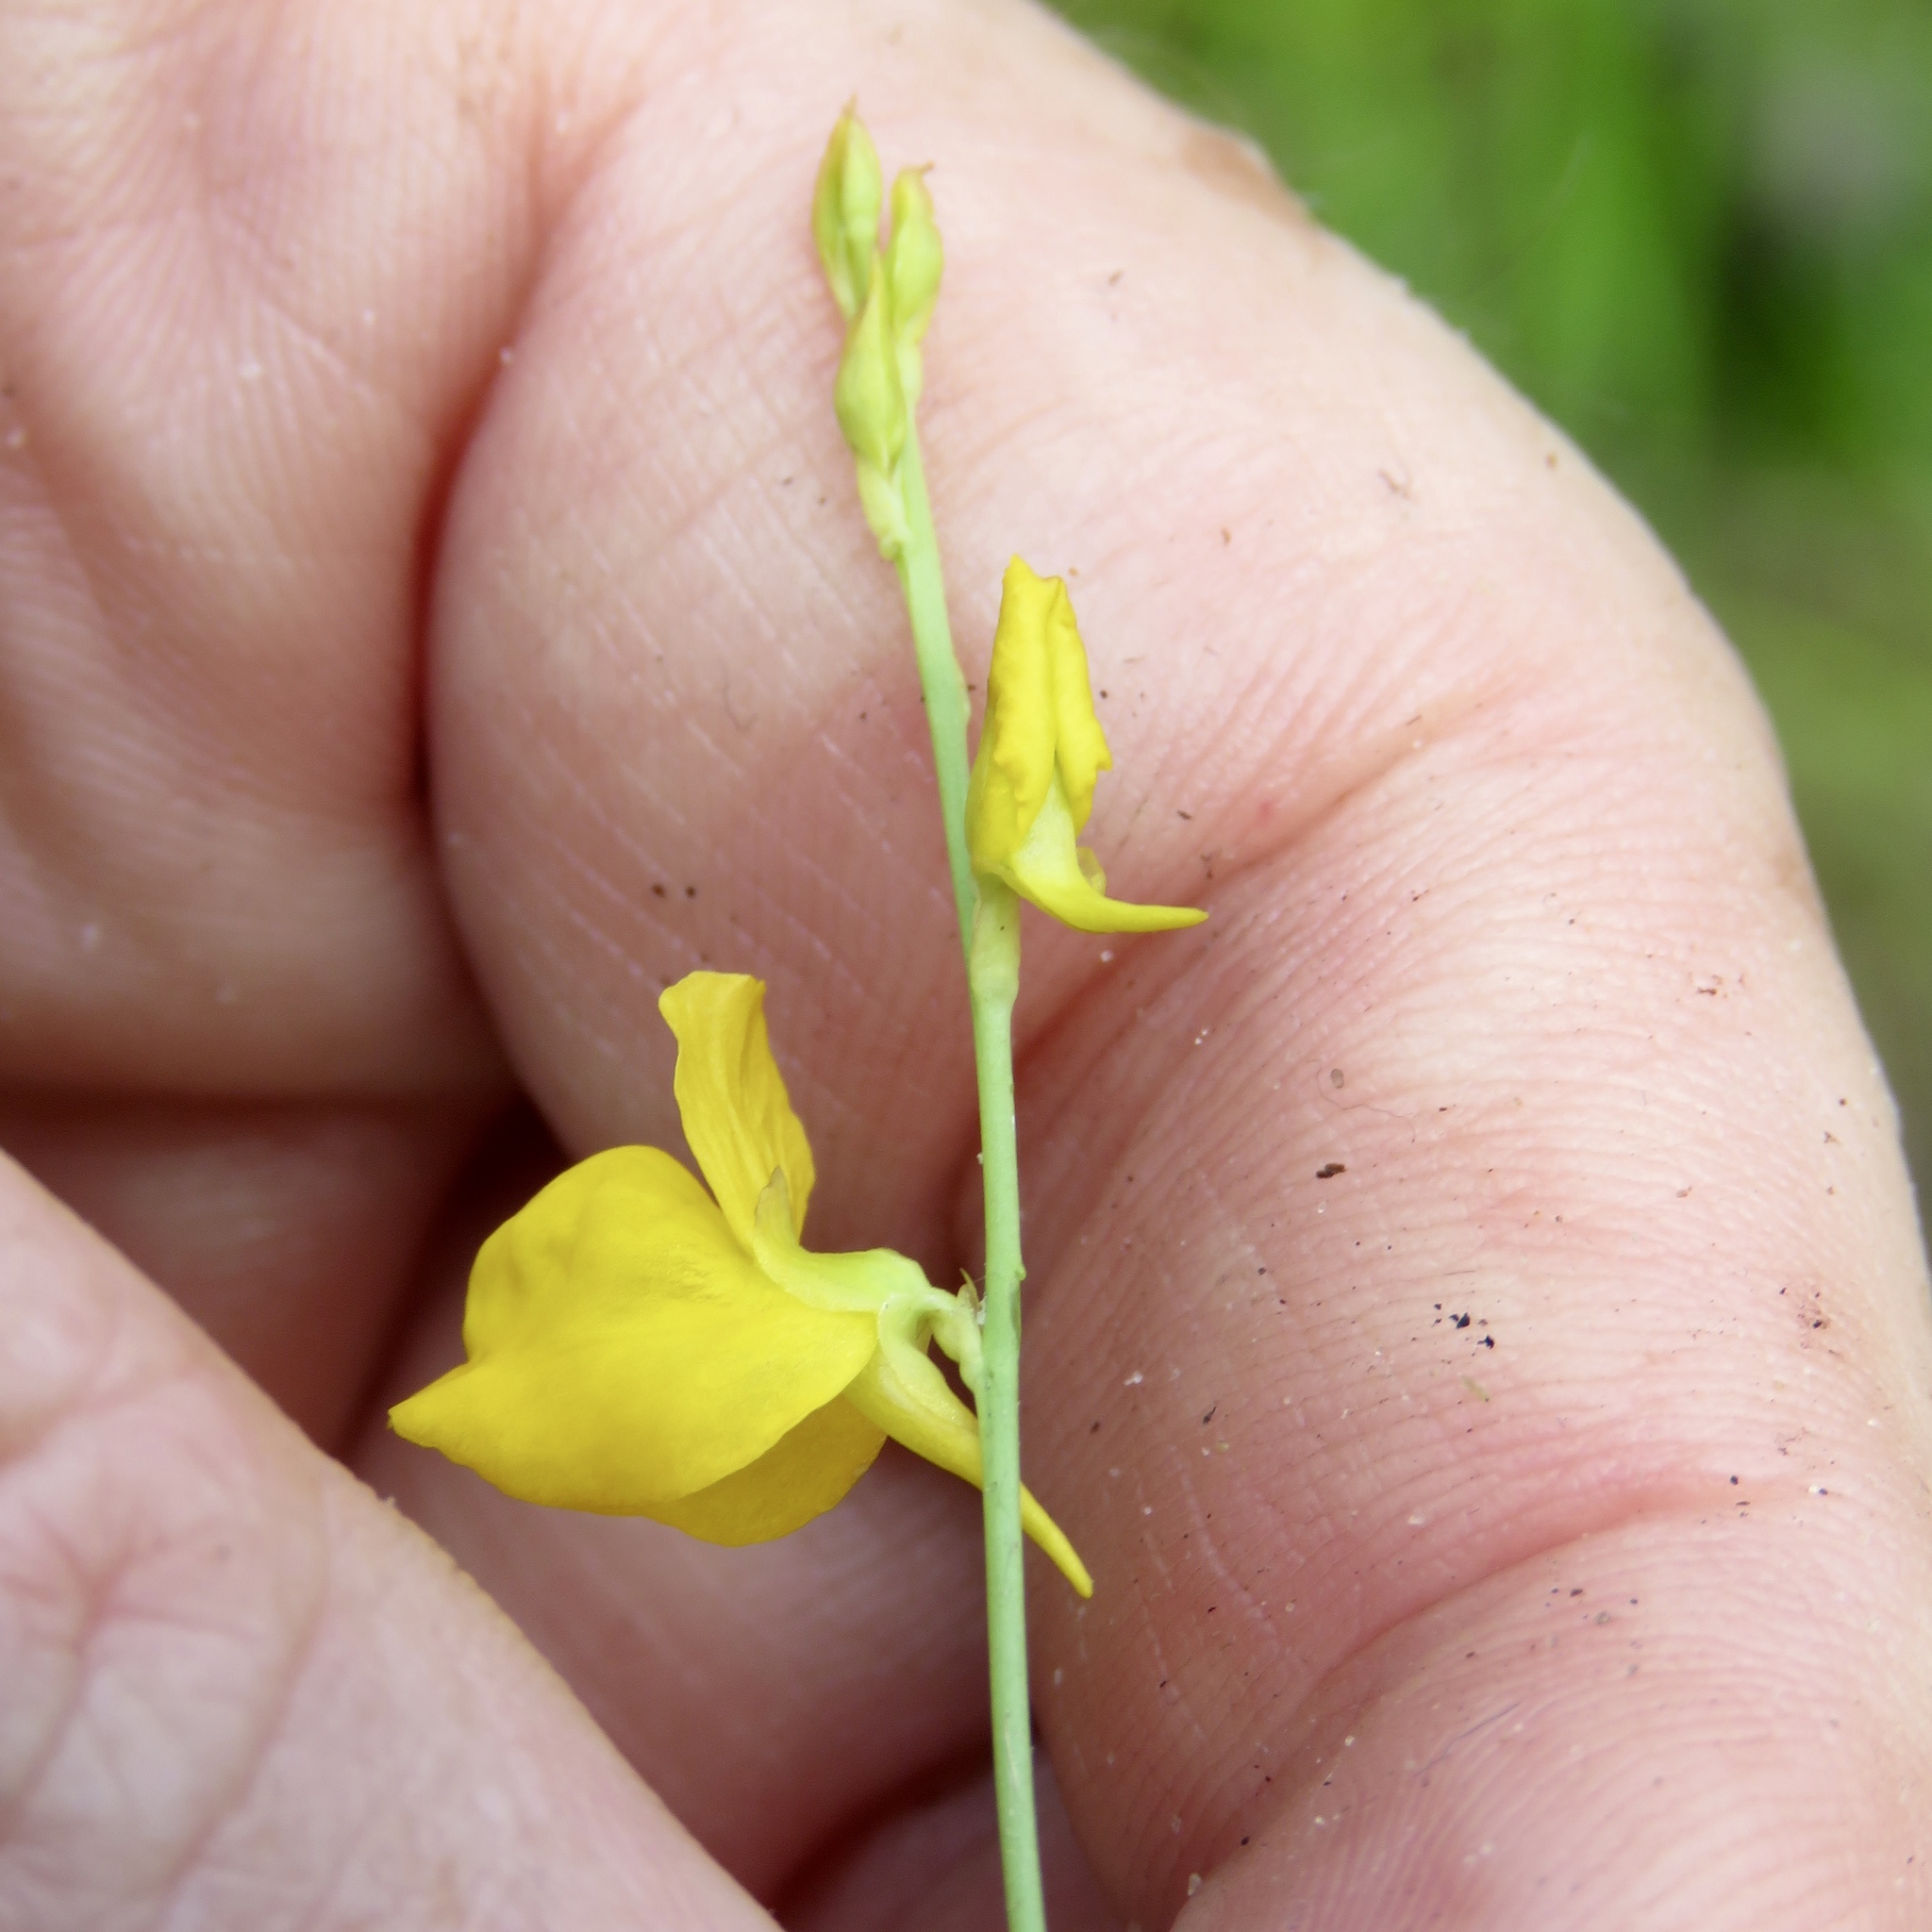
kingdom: Plantae
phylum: Tracheophyta
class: Magnoliopsida
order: Lamiales
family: Lentibulariaceae
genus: Utricularia
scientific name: Utricularia juncea
